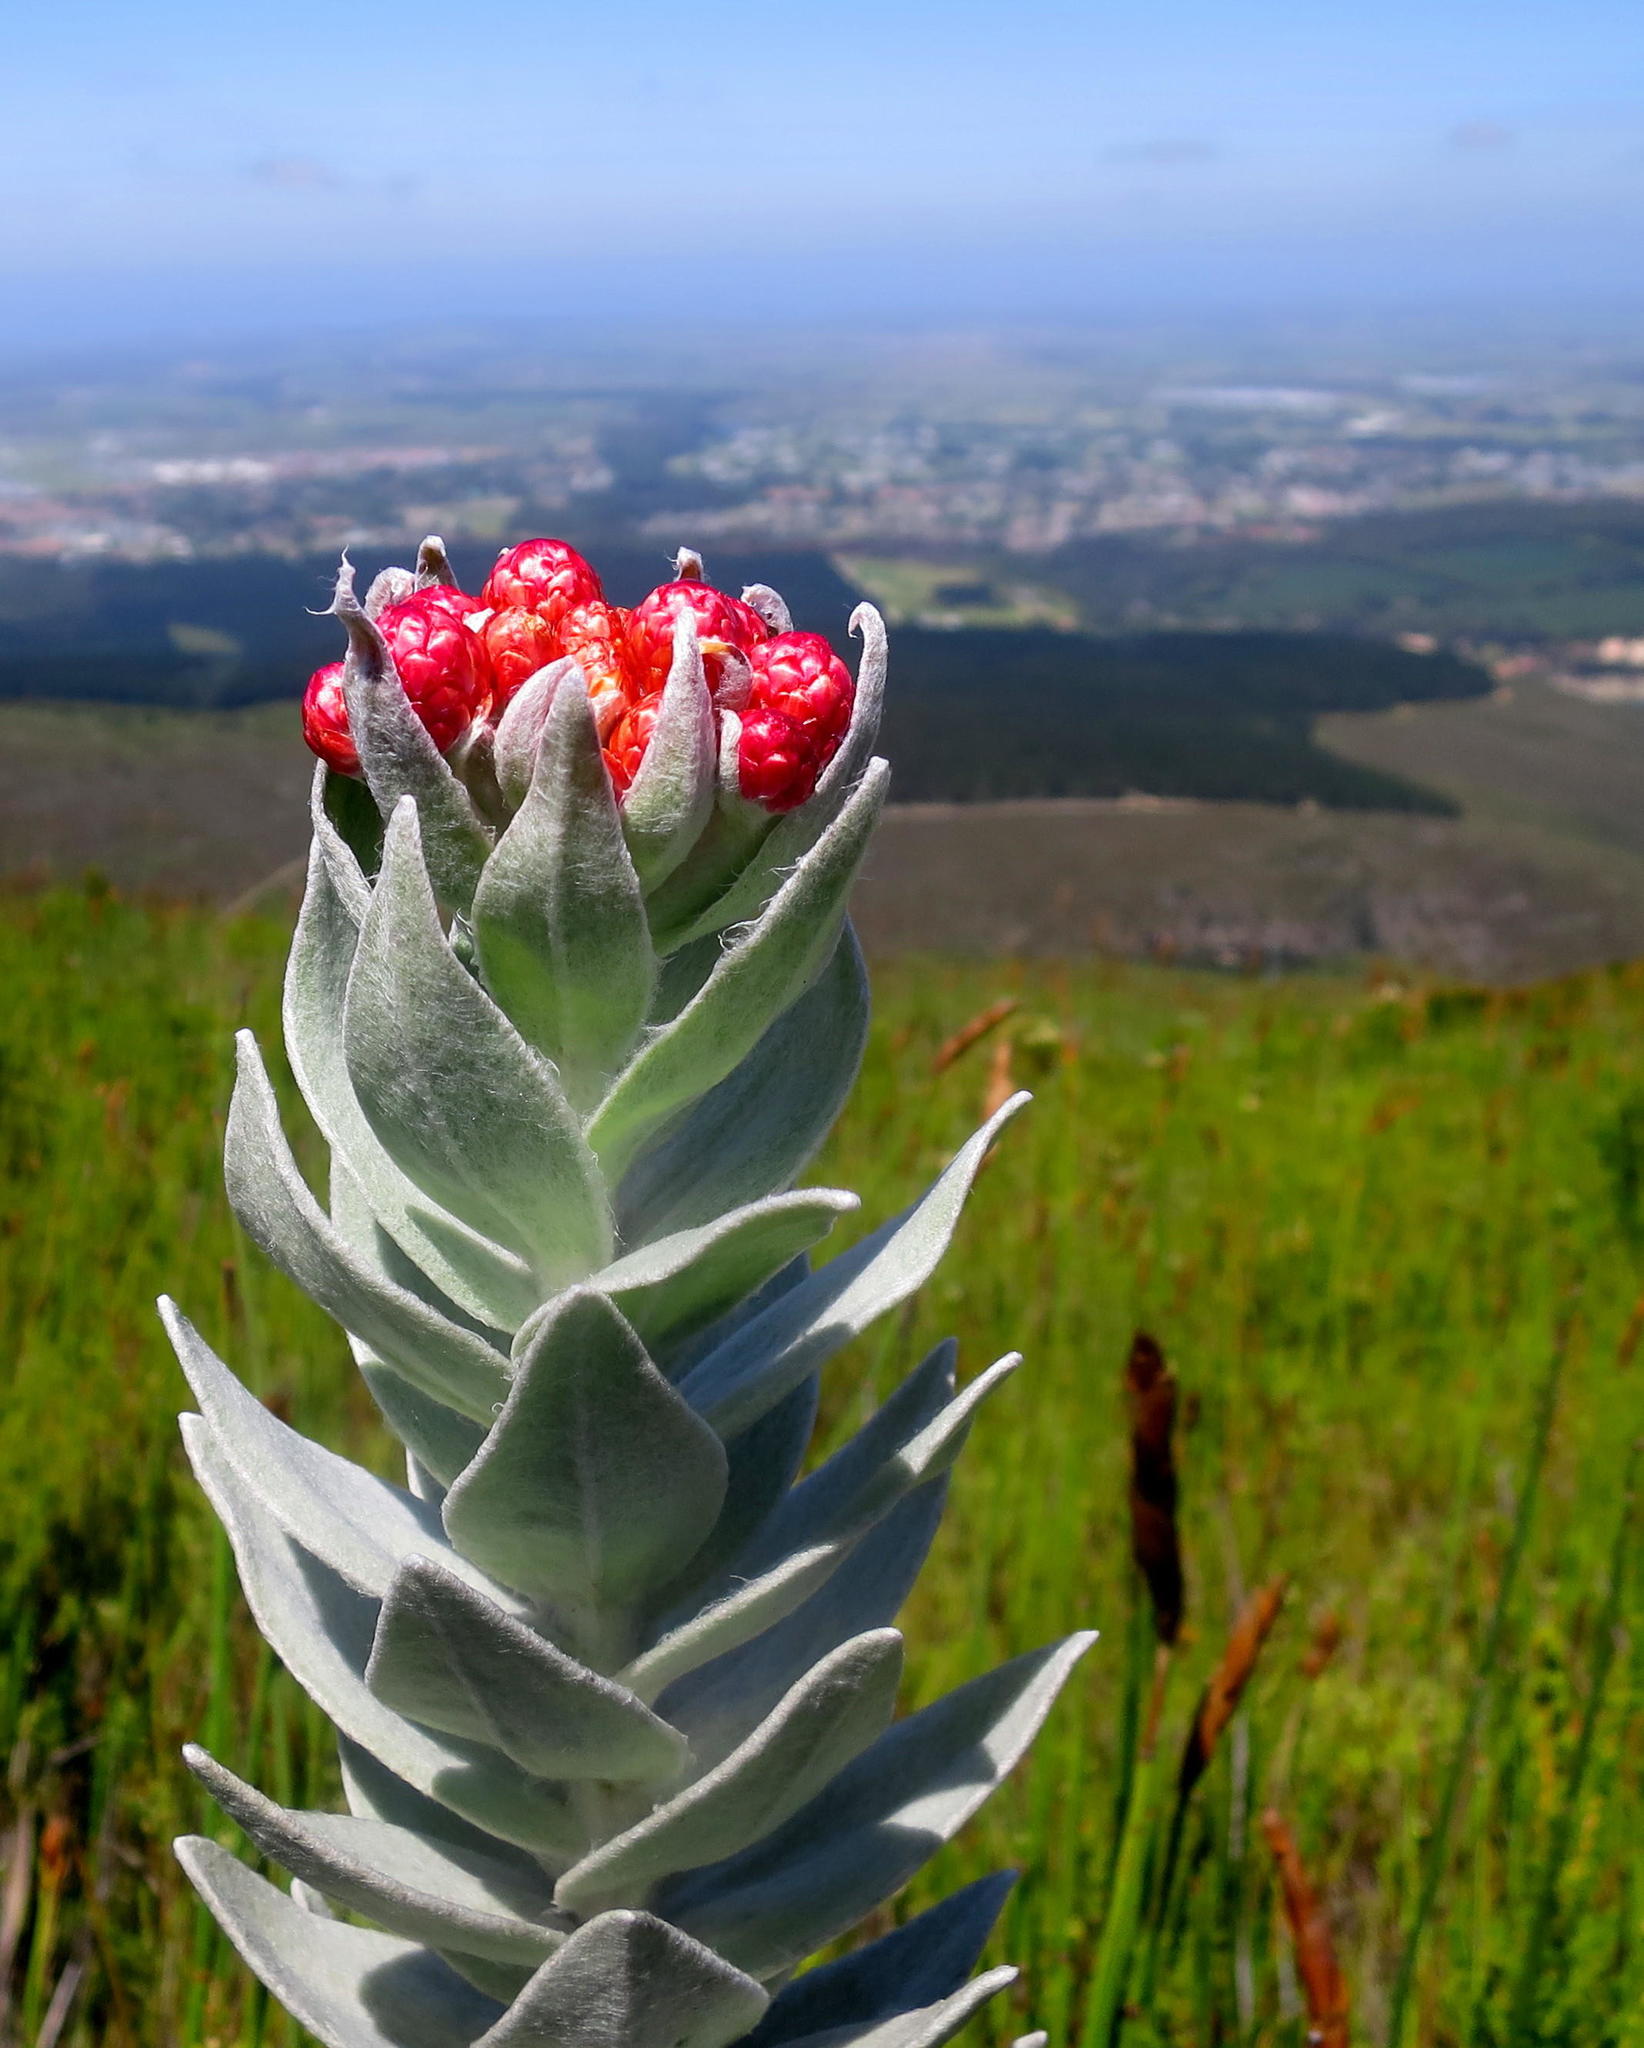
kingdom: Plantae
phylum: Tracheophyta
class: Magnoliopsida
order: Asterales
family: Asteraceae
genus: Syncarpha
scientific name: Syncarpha eximia
